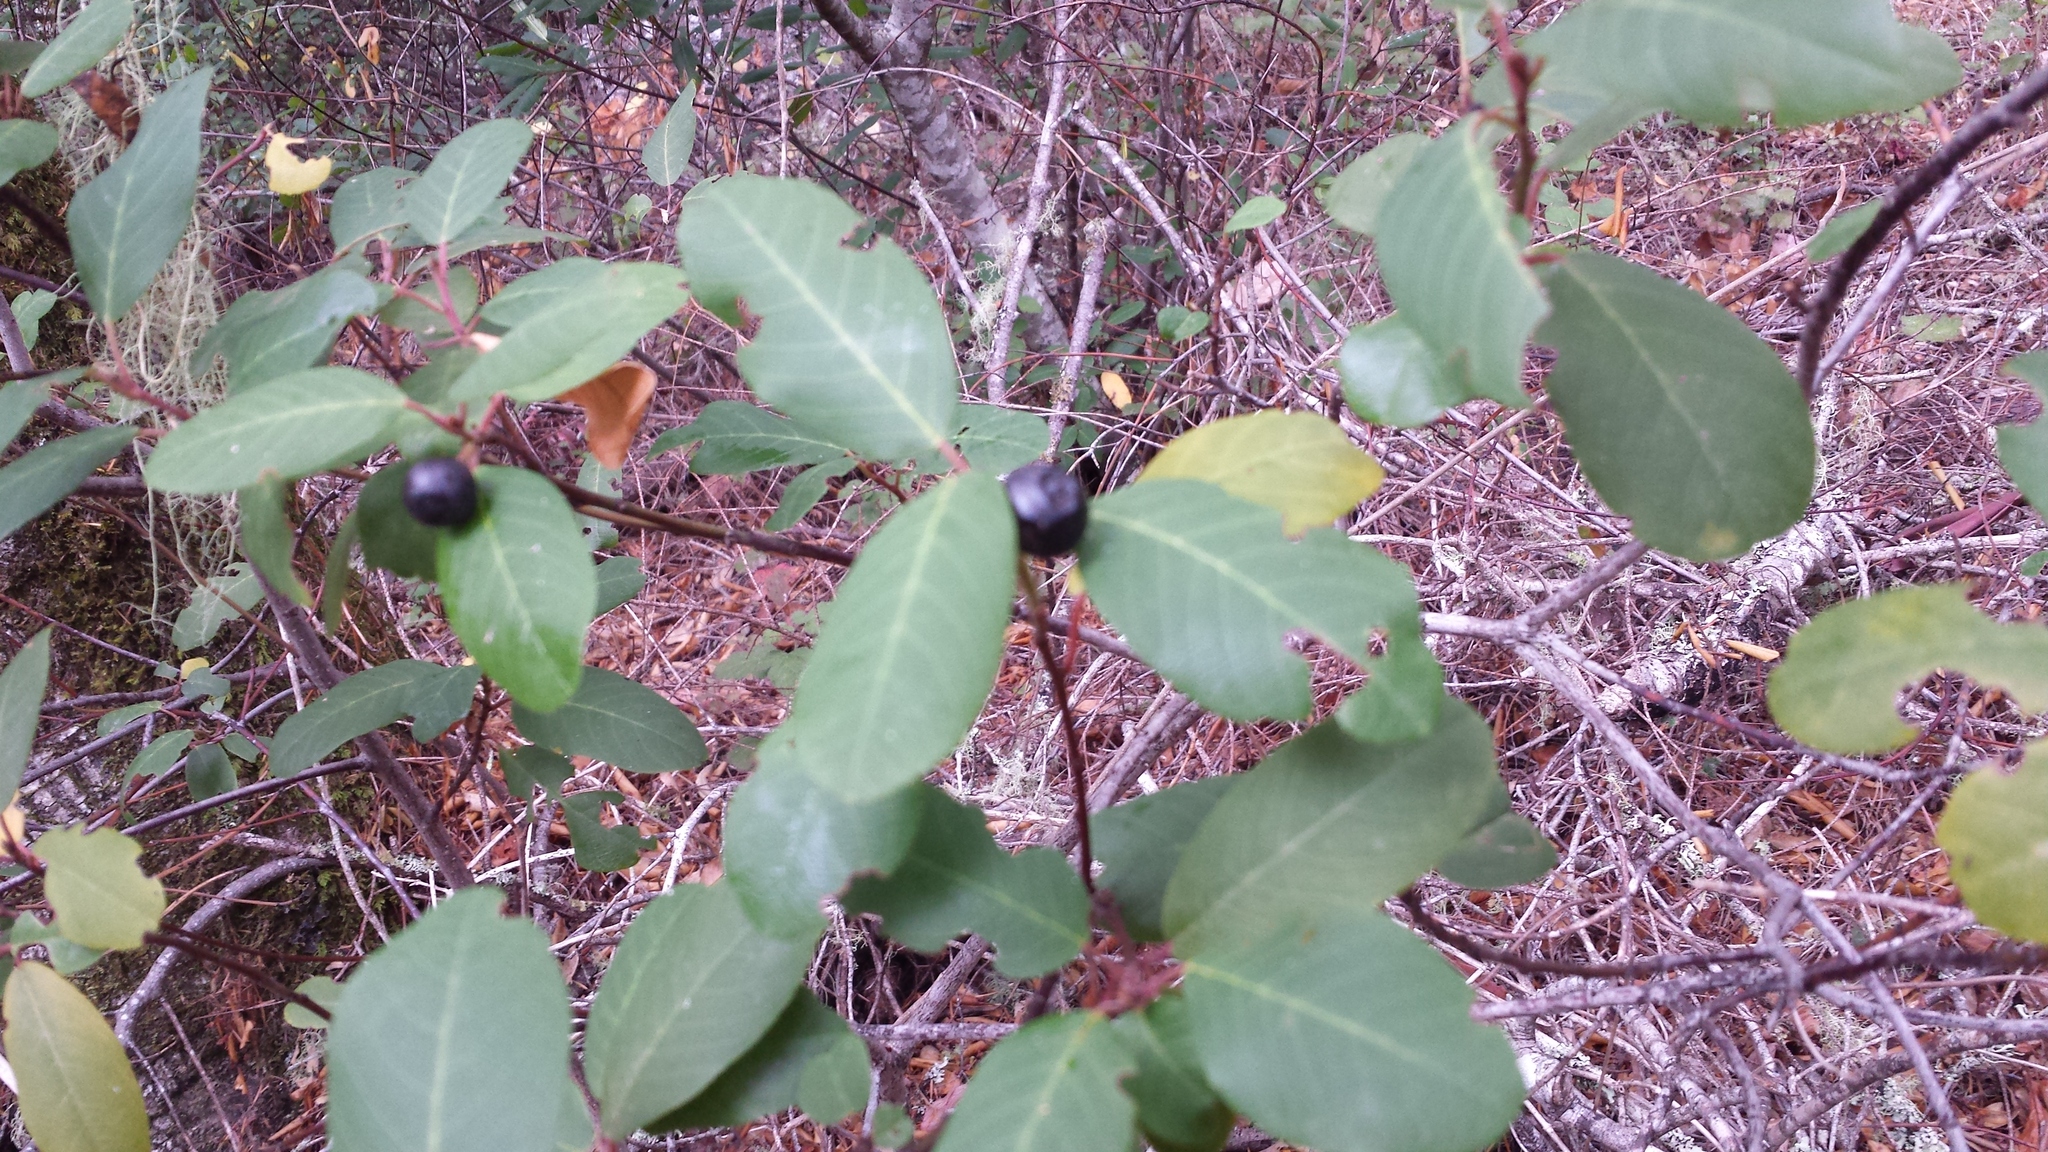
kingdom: Plantae
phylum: Tracheophyta
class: Magnoliopsida
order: Rosales
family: Rhamnaceae
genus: Frangula
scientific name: Frangula californica
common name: California buckthorn
